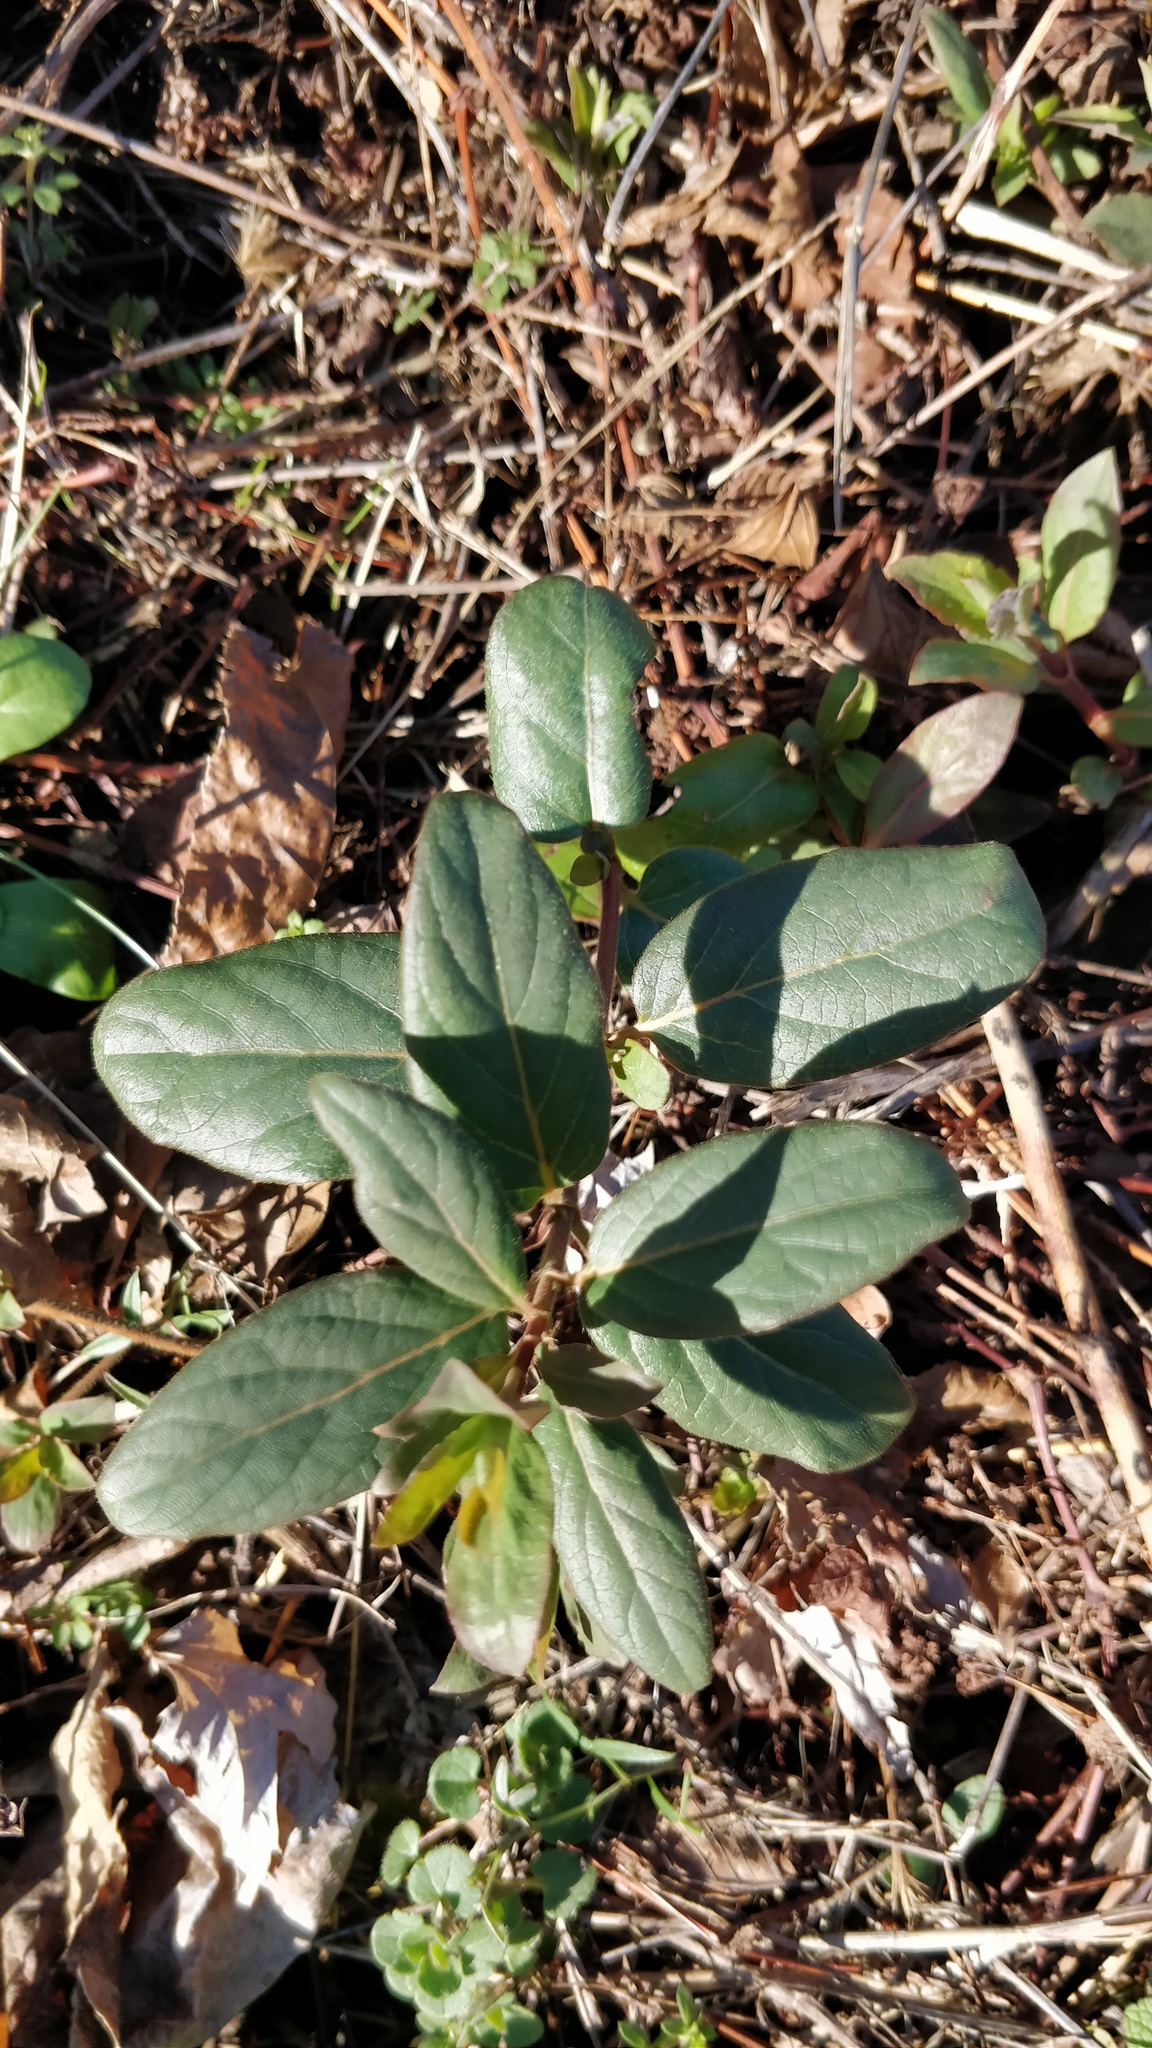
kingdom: Plantae
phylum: Tracheophyta
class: Magnoliopsida
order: Dipsacales
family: Caprifoliaceae
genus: Lonicera
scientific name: Lonicera japonica
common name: Japanese honeysuckle
